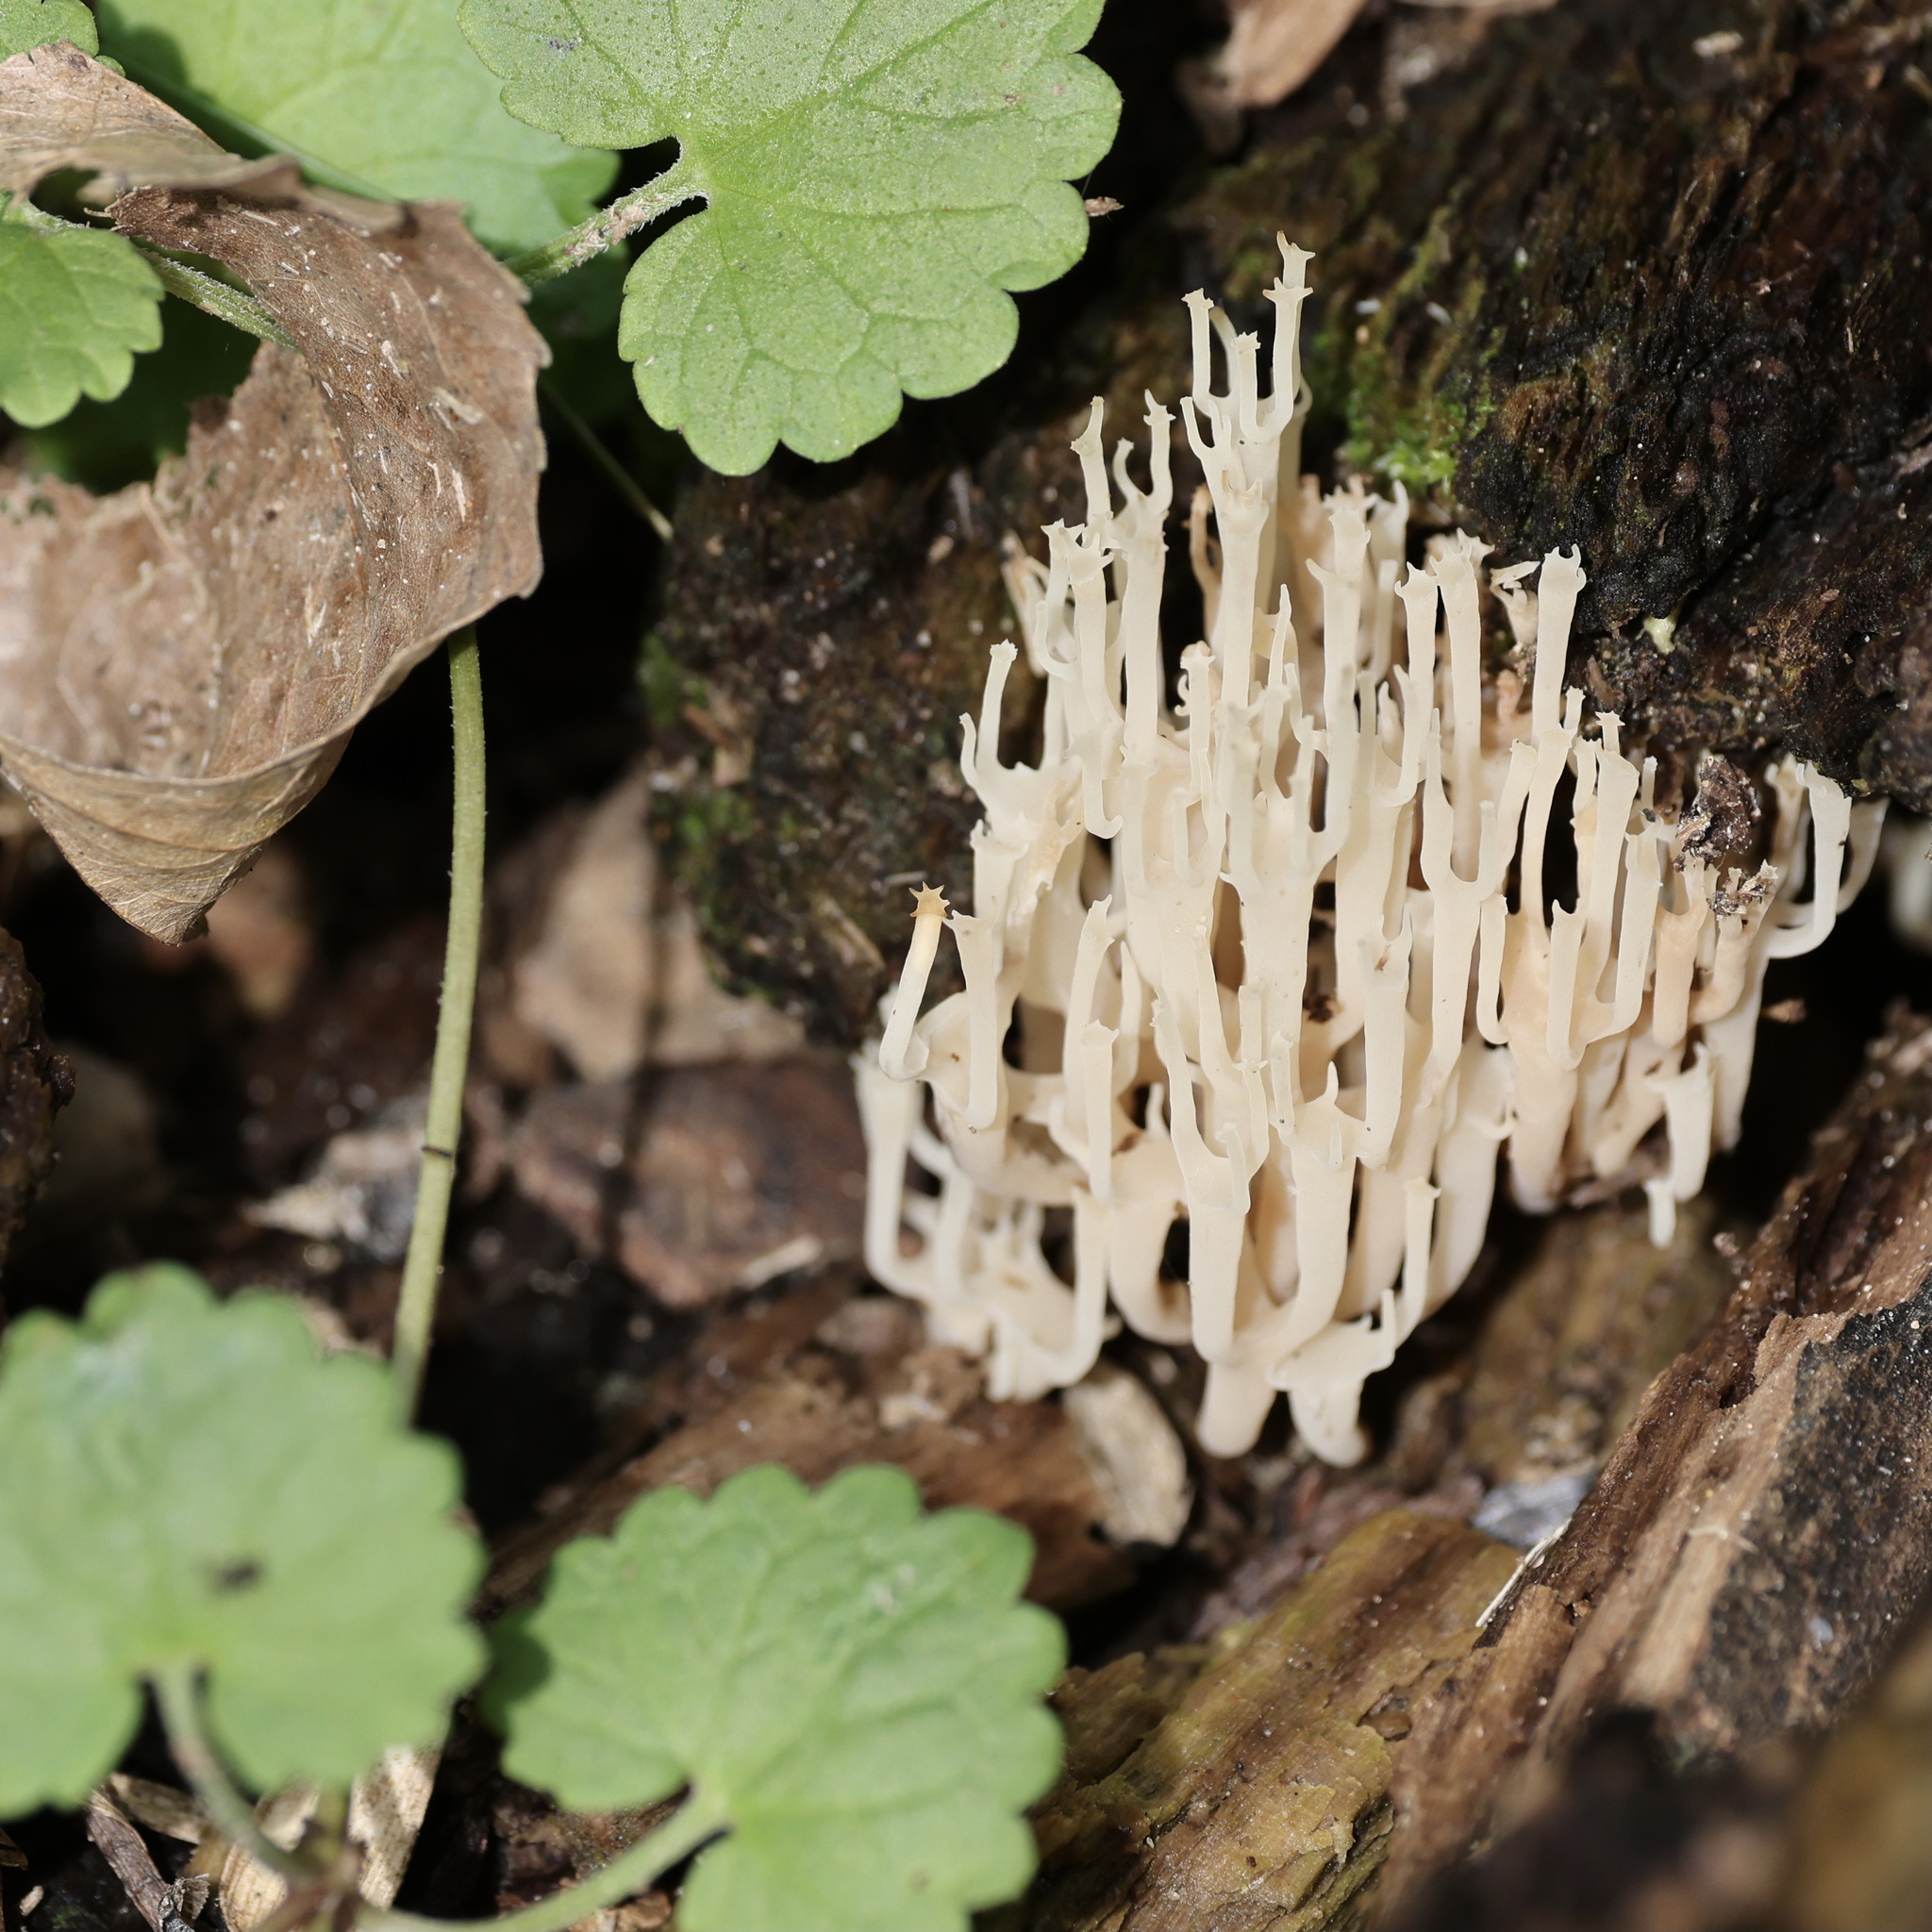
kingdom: Fungi
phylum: Basidiomycota
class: Agaricomycetes
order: Russulales
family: Auriscalpiaceae
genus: Artomyces
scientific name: Artomyces pyxidatus
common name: Crown-tipped coral fungus
